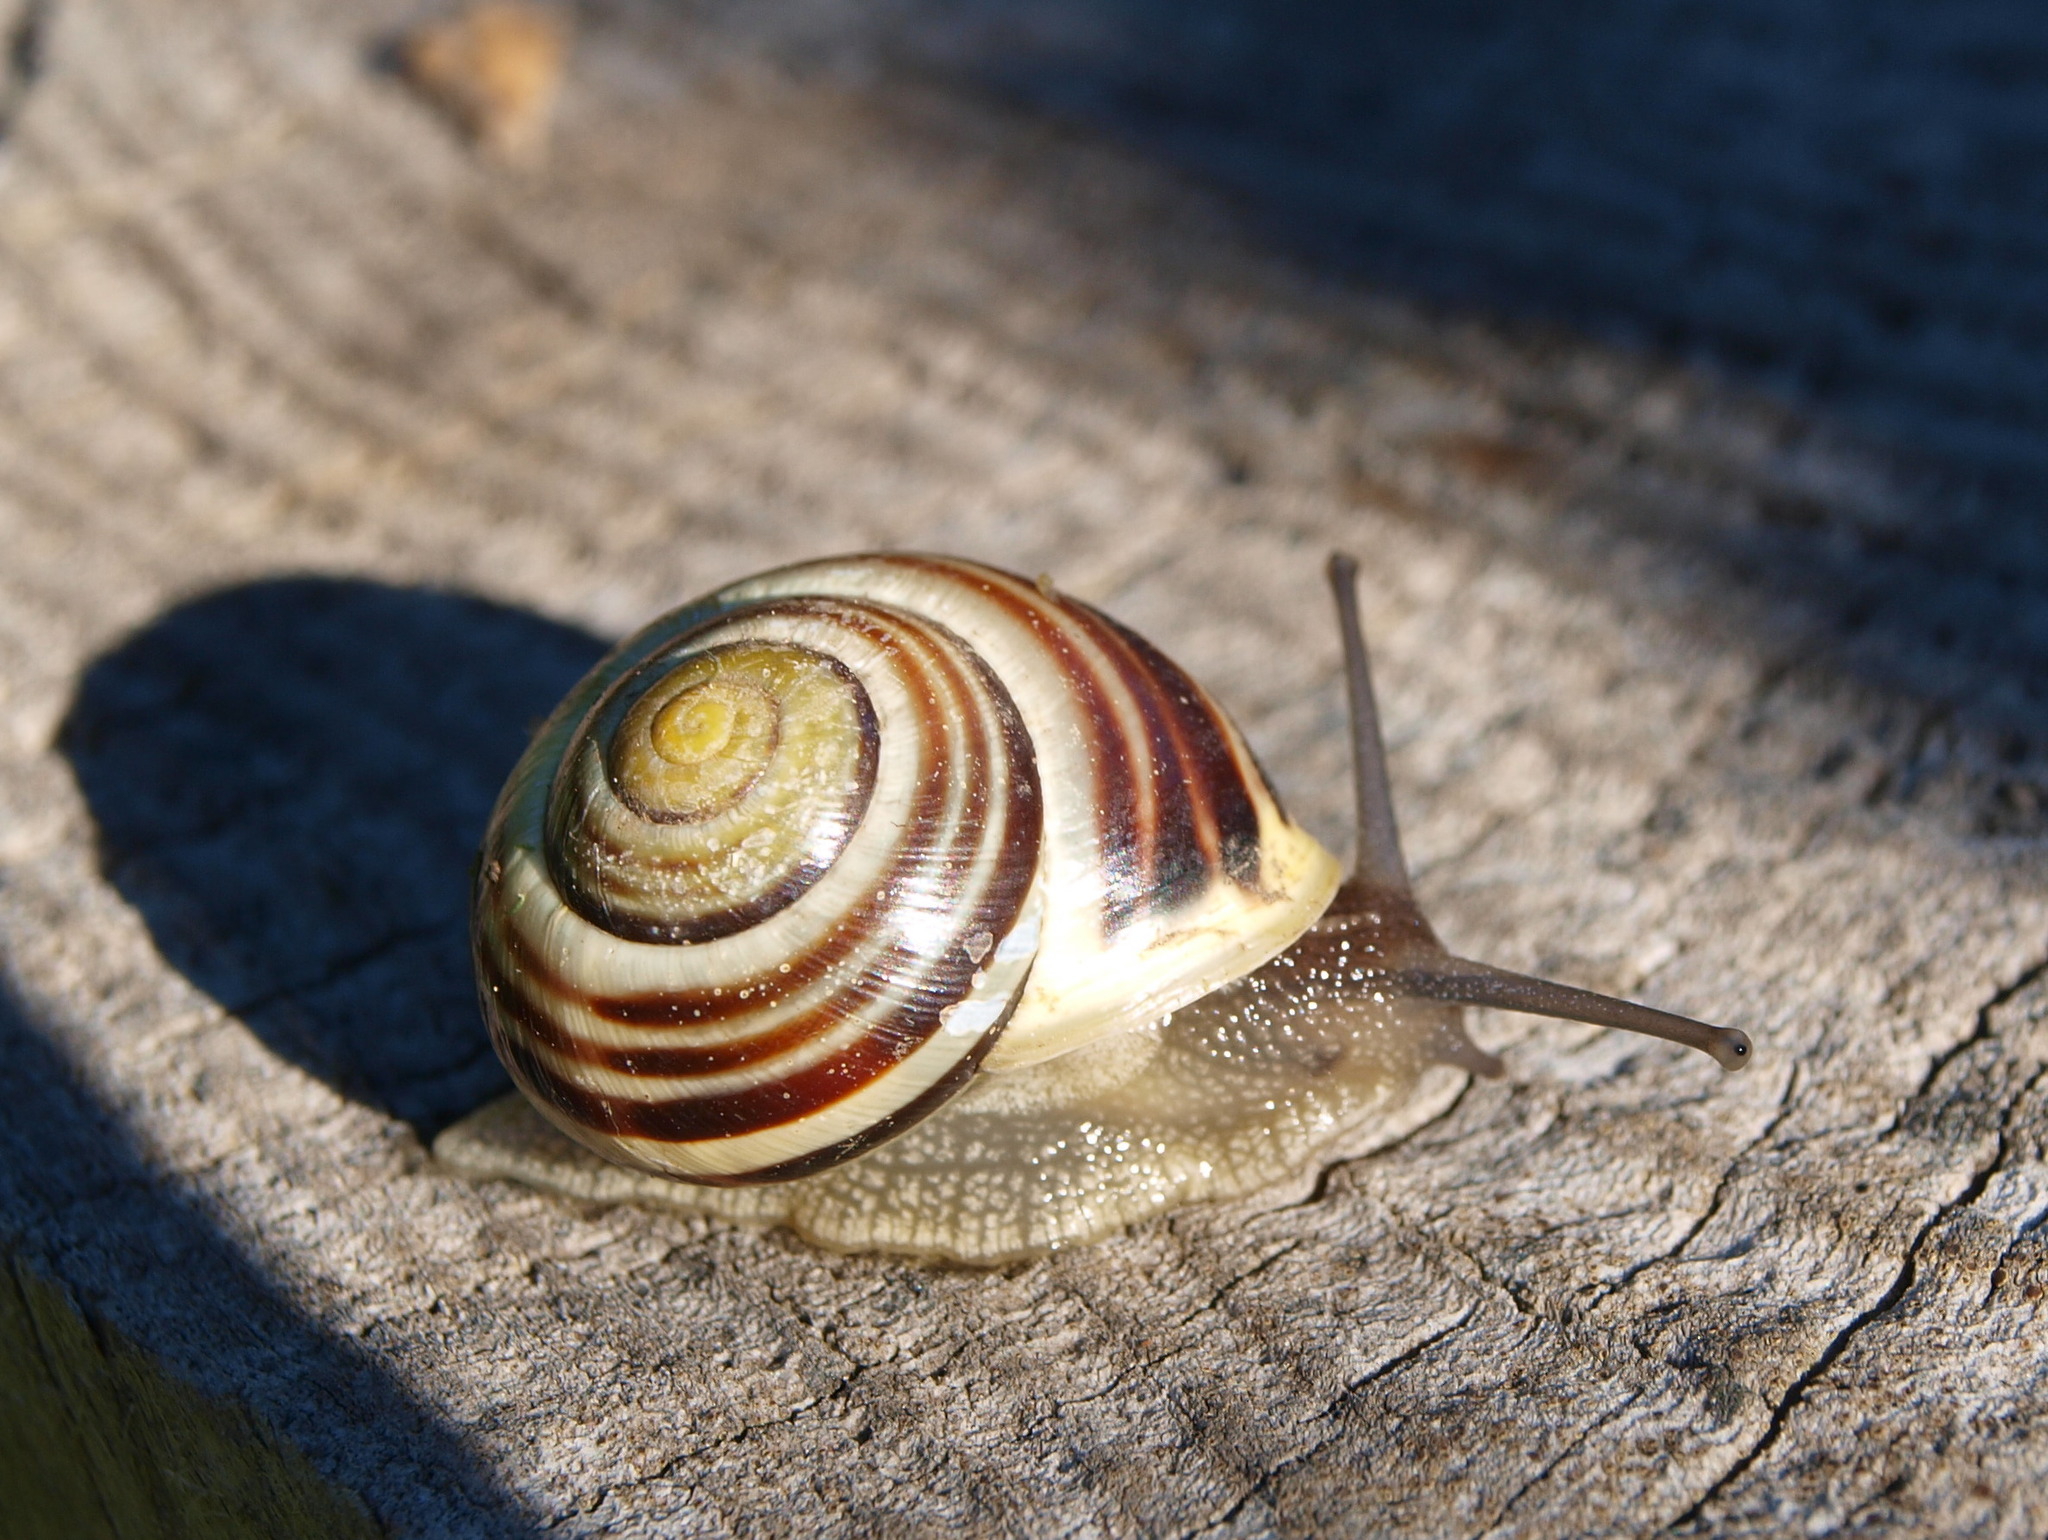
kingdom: Animalia
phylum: Mollusca
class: Gastropoda
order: Stylommatophora
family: Helicidae
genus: Cepaea
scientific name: Cepaea hortensis
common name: White-lip gardensnail
